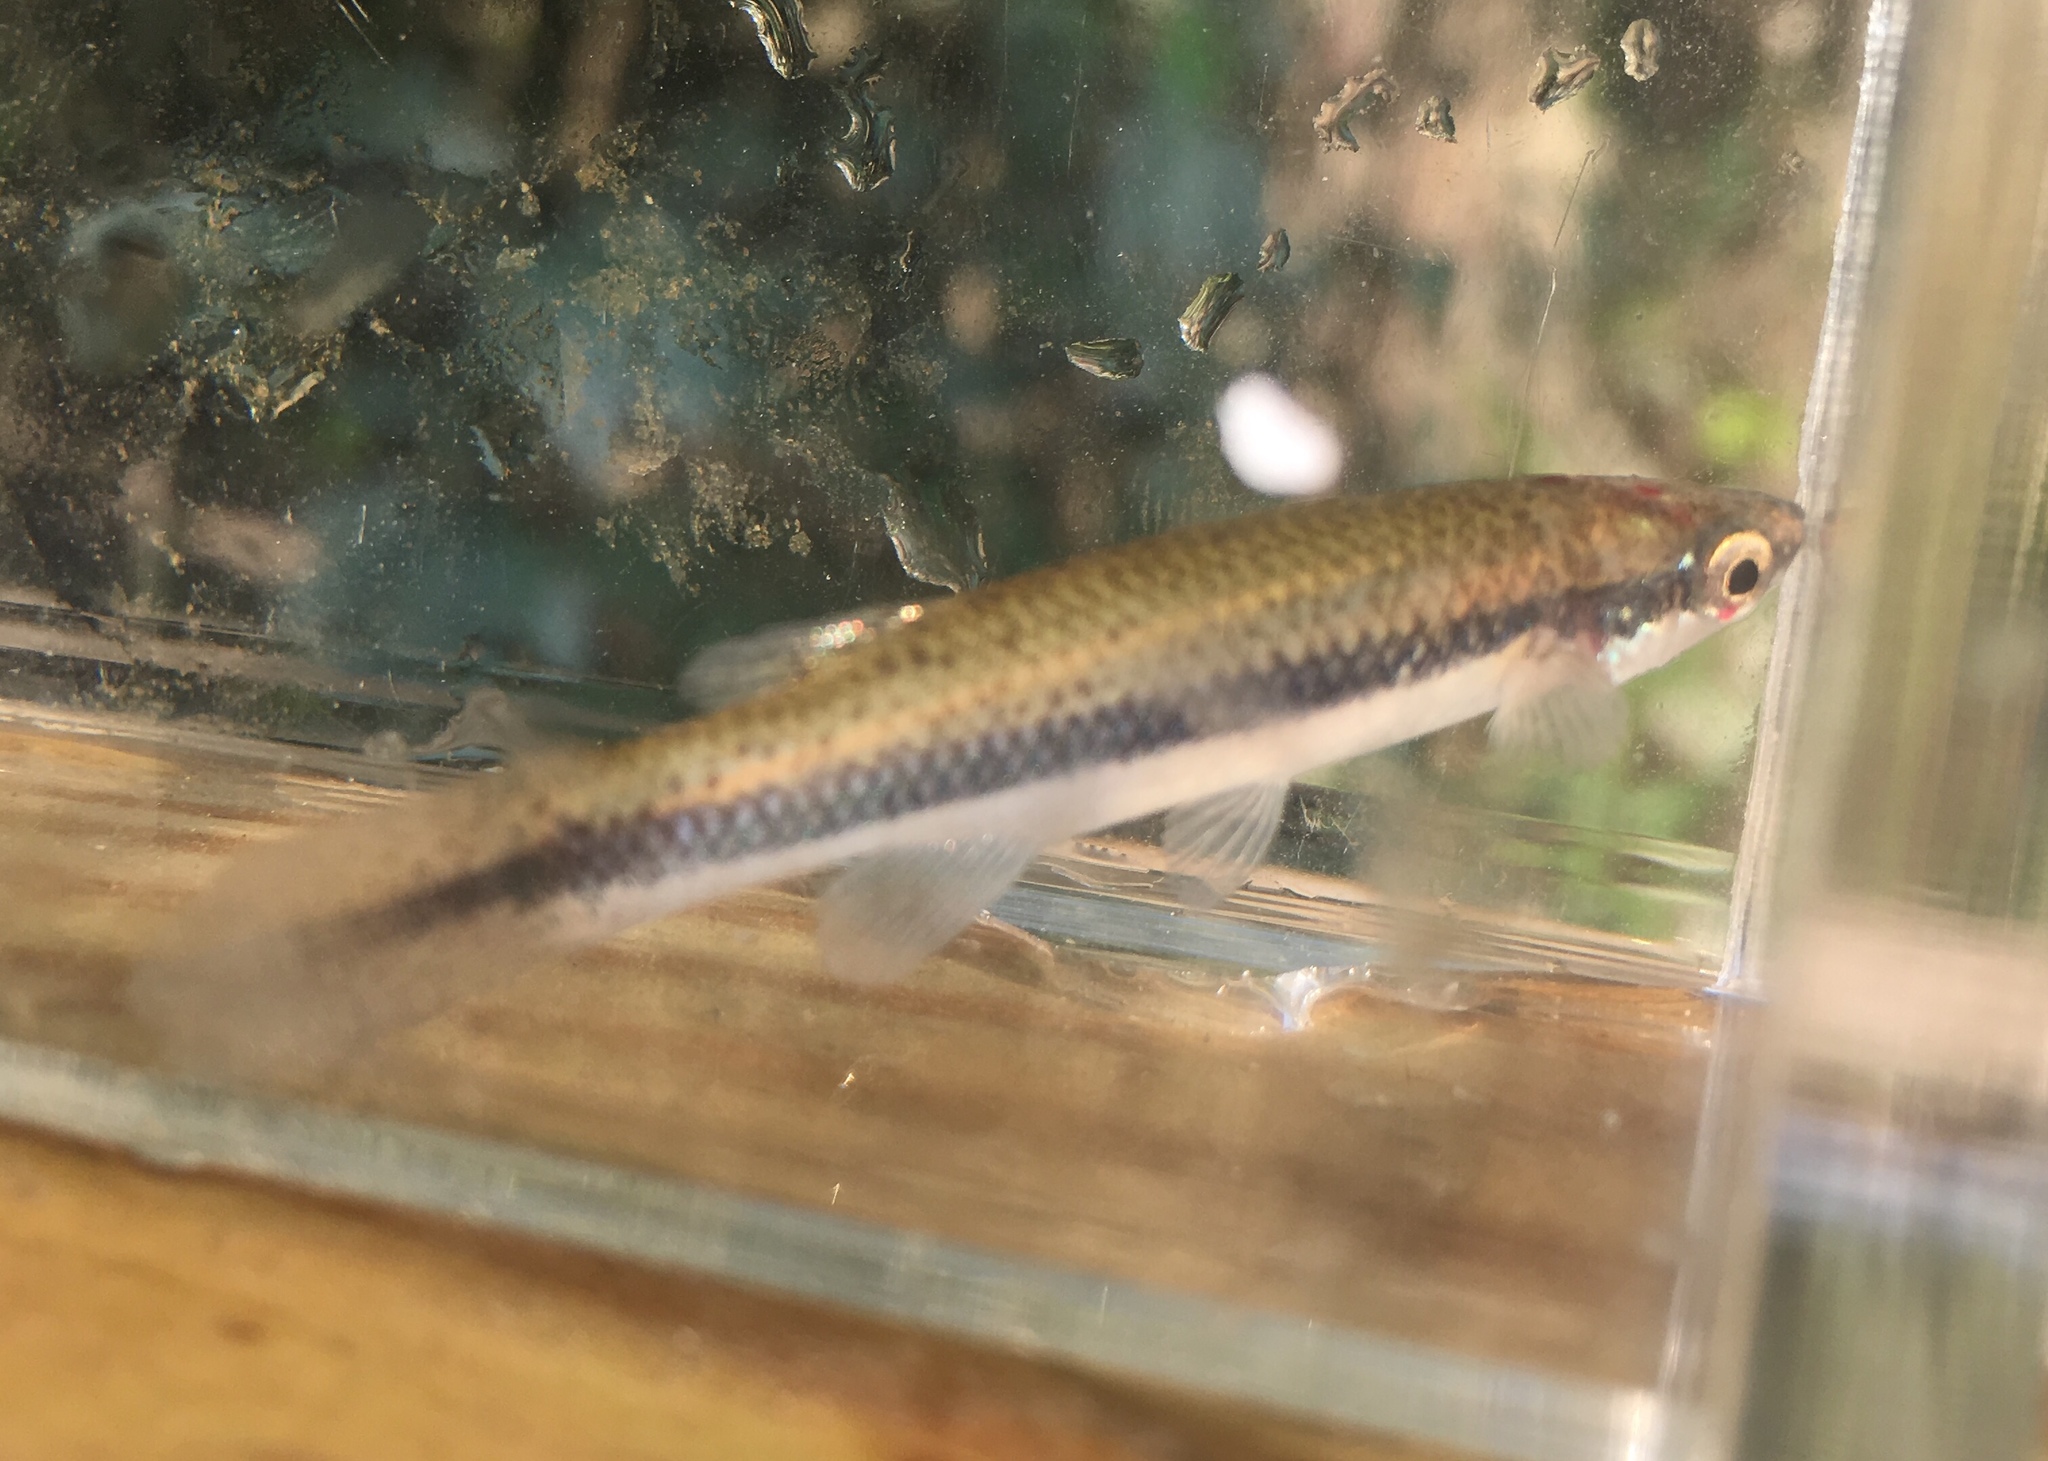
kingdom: Animalia
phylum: Chordata
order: Cyprinodontiformes
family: Fundulidae
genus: Fundulus
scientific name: Fundulus notatus
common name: Blackstripe topminnow
